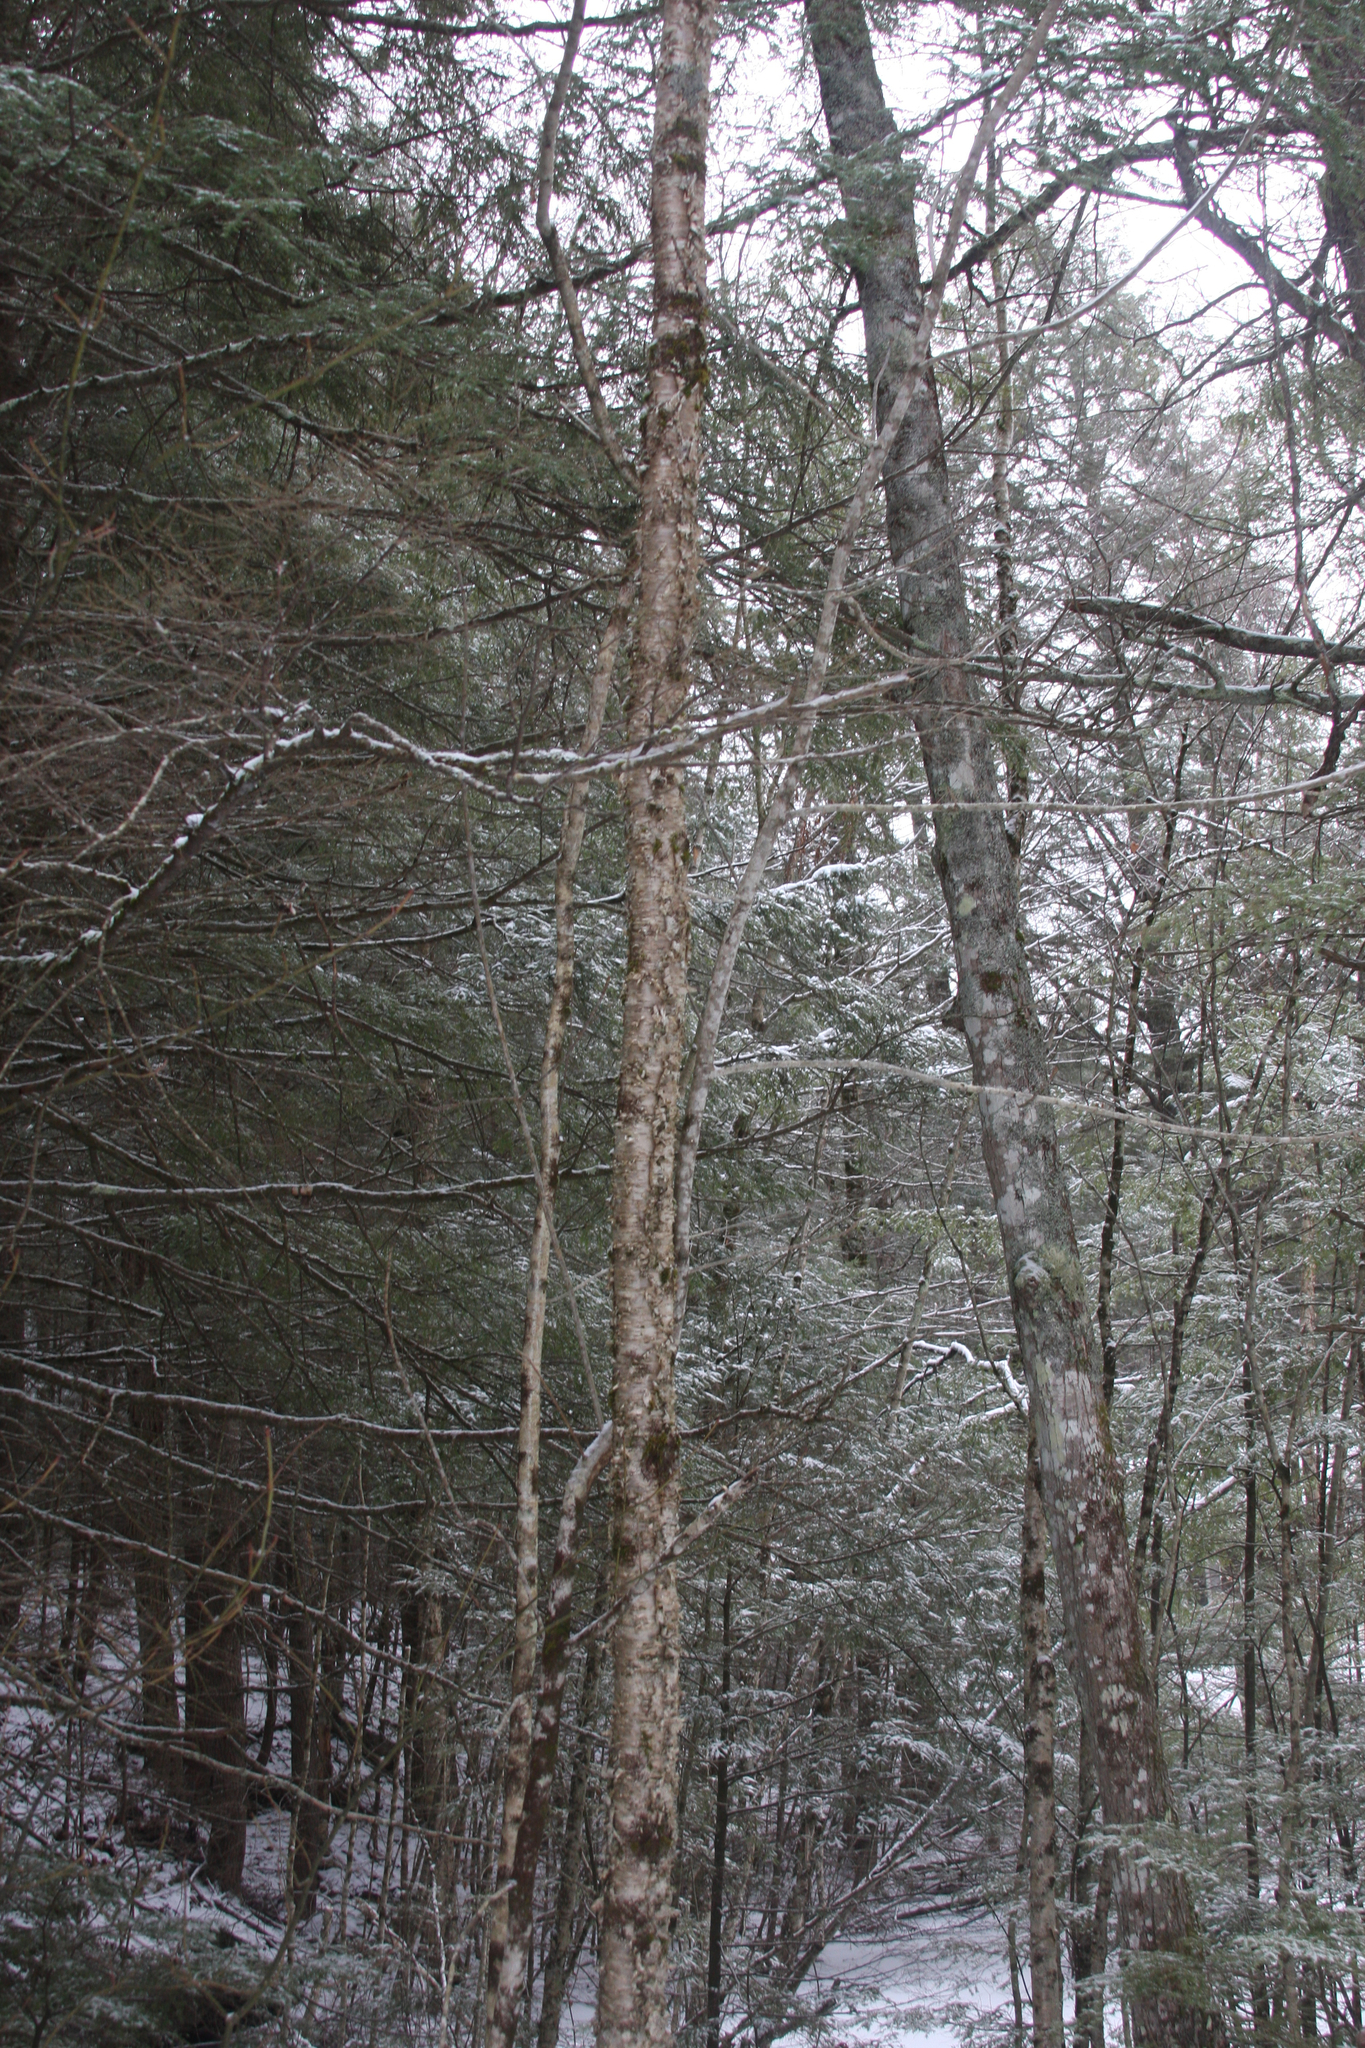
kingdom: Plantae
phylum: Tracheophyta
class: Magnoliopsida
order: Fagales
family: Betulaceae
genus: Betula
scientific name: Betula alleghaniensis
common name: Yellow birch
